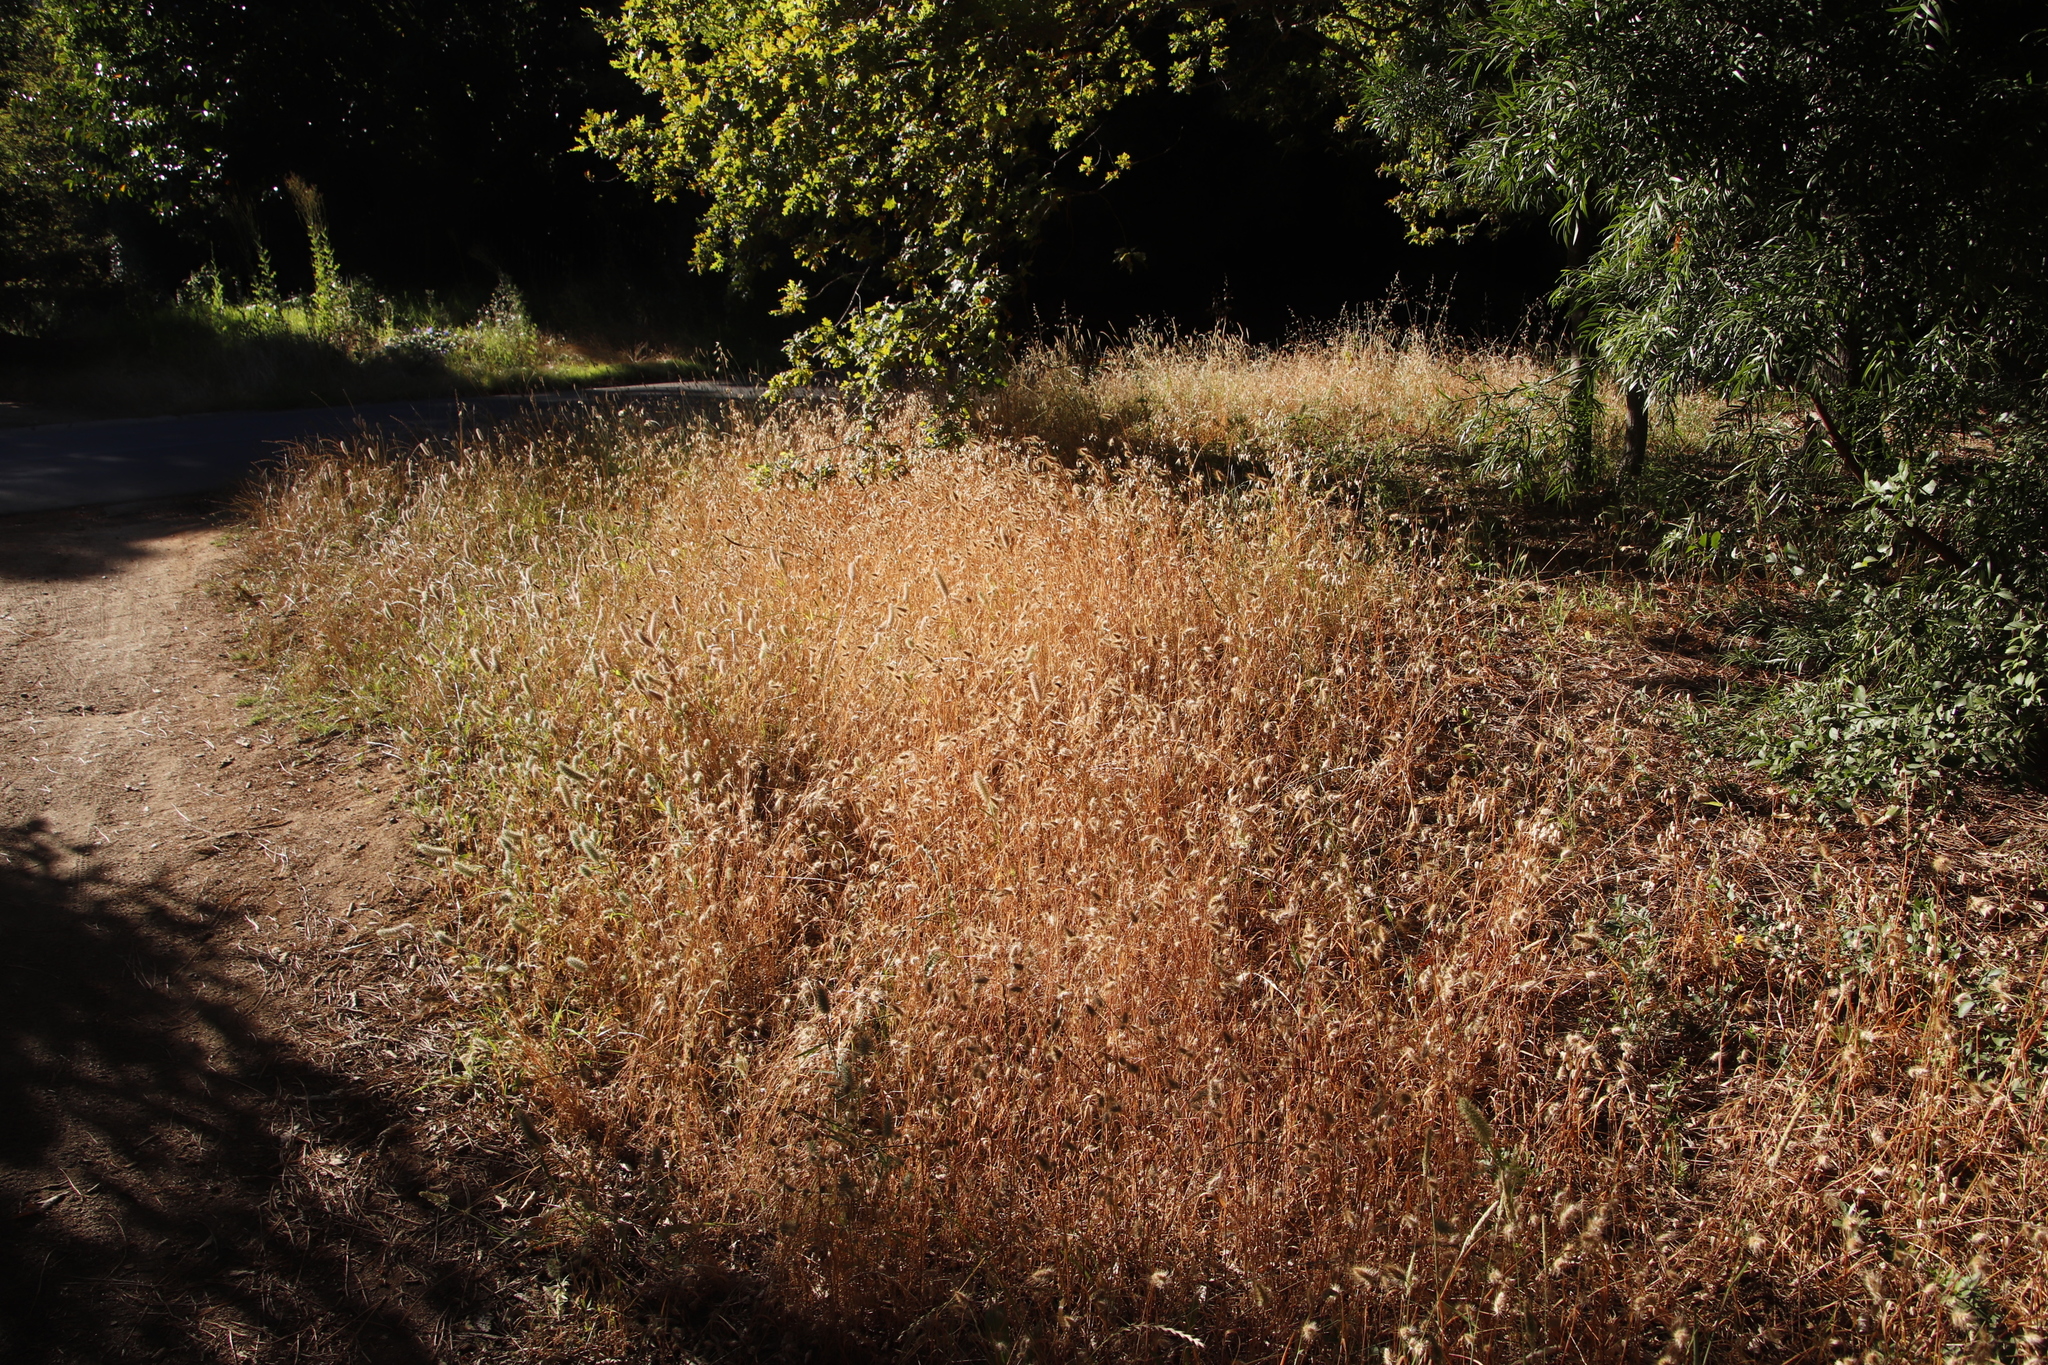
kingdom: Plantae
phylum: Tracheophyta
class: Magnoliopsida
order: Fabales
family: Fabaceae
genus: Trifolium
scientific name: Trifolium angustifolium
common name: Narrow clover
